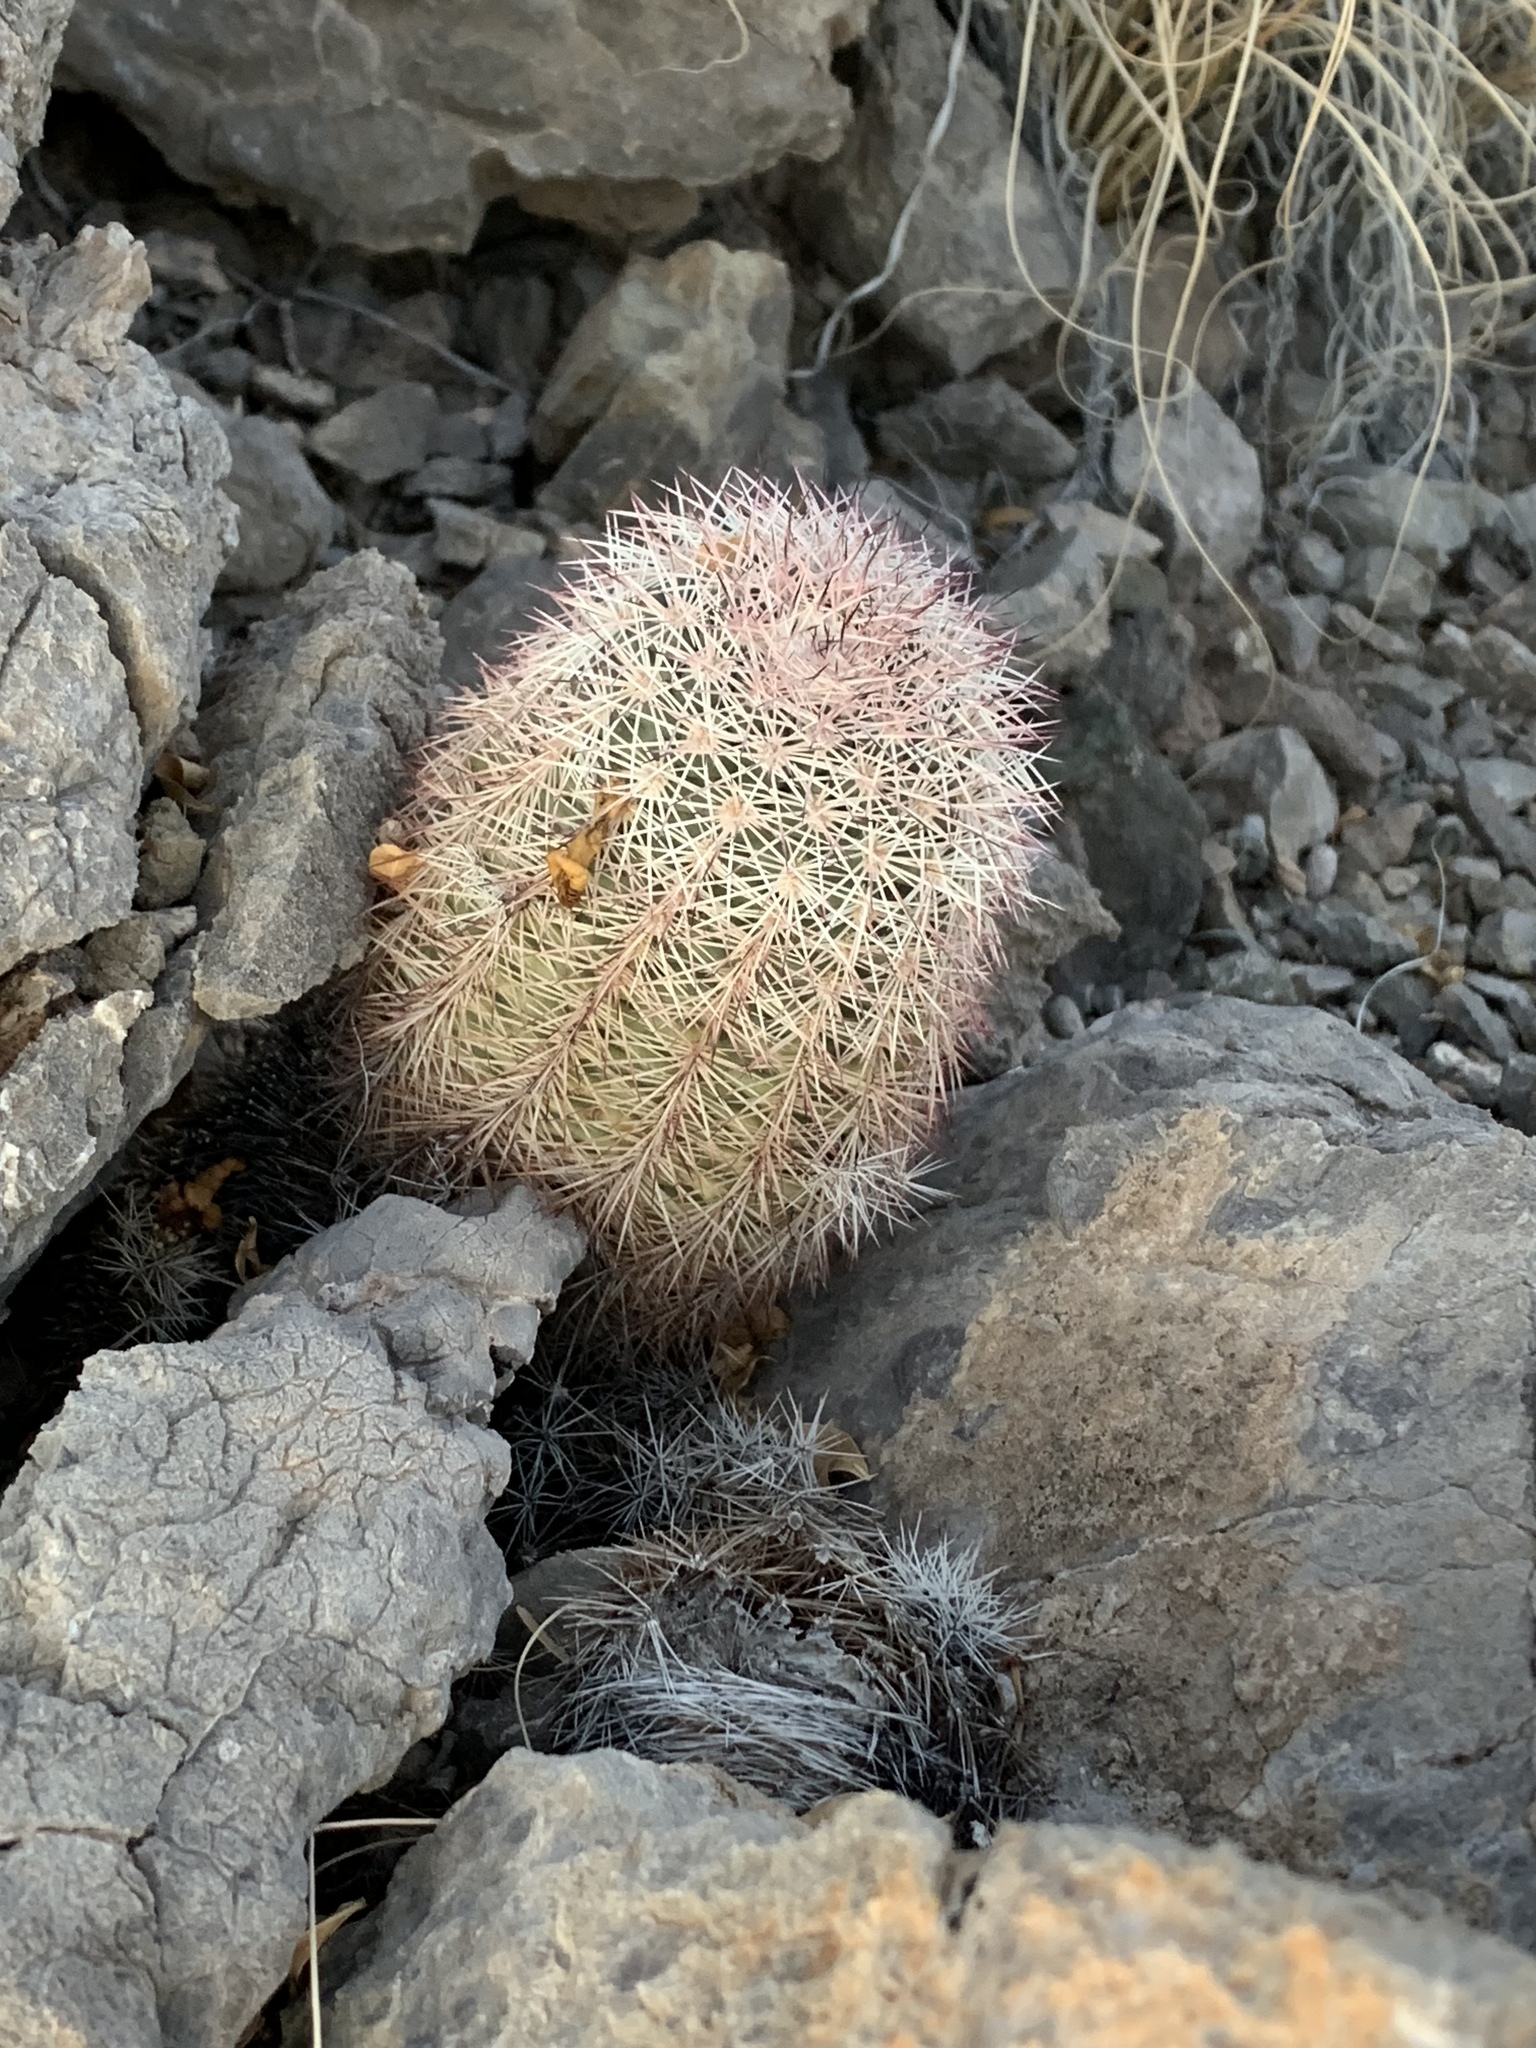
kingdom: Plantae
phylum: Tracheophyta
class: Magnoliopsida
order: Caryophyllales
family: Cactaceae
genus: Echinocereus
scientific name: Echinocereus dasyacanthus
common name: Spiny hedgehog cactus
